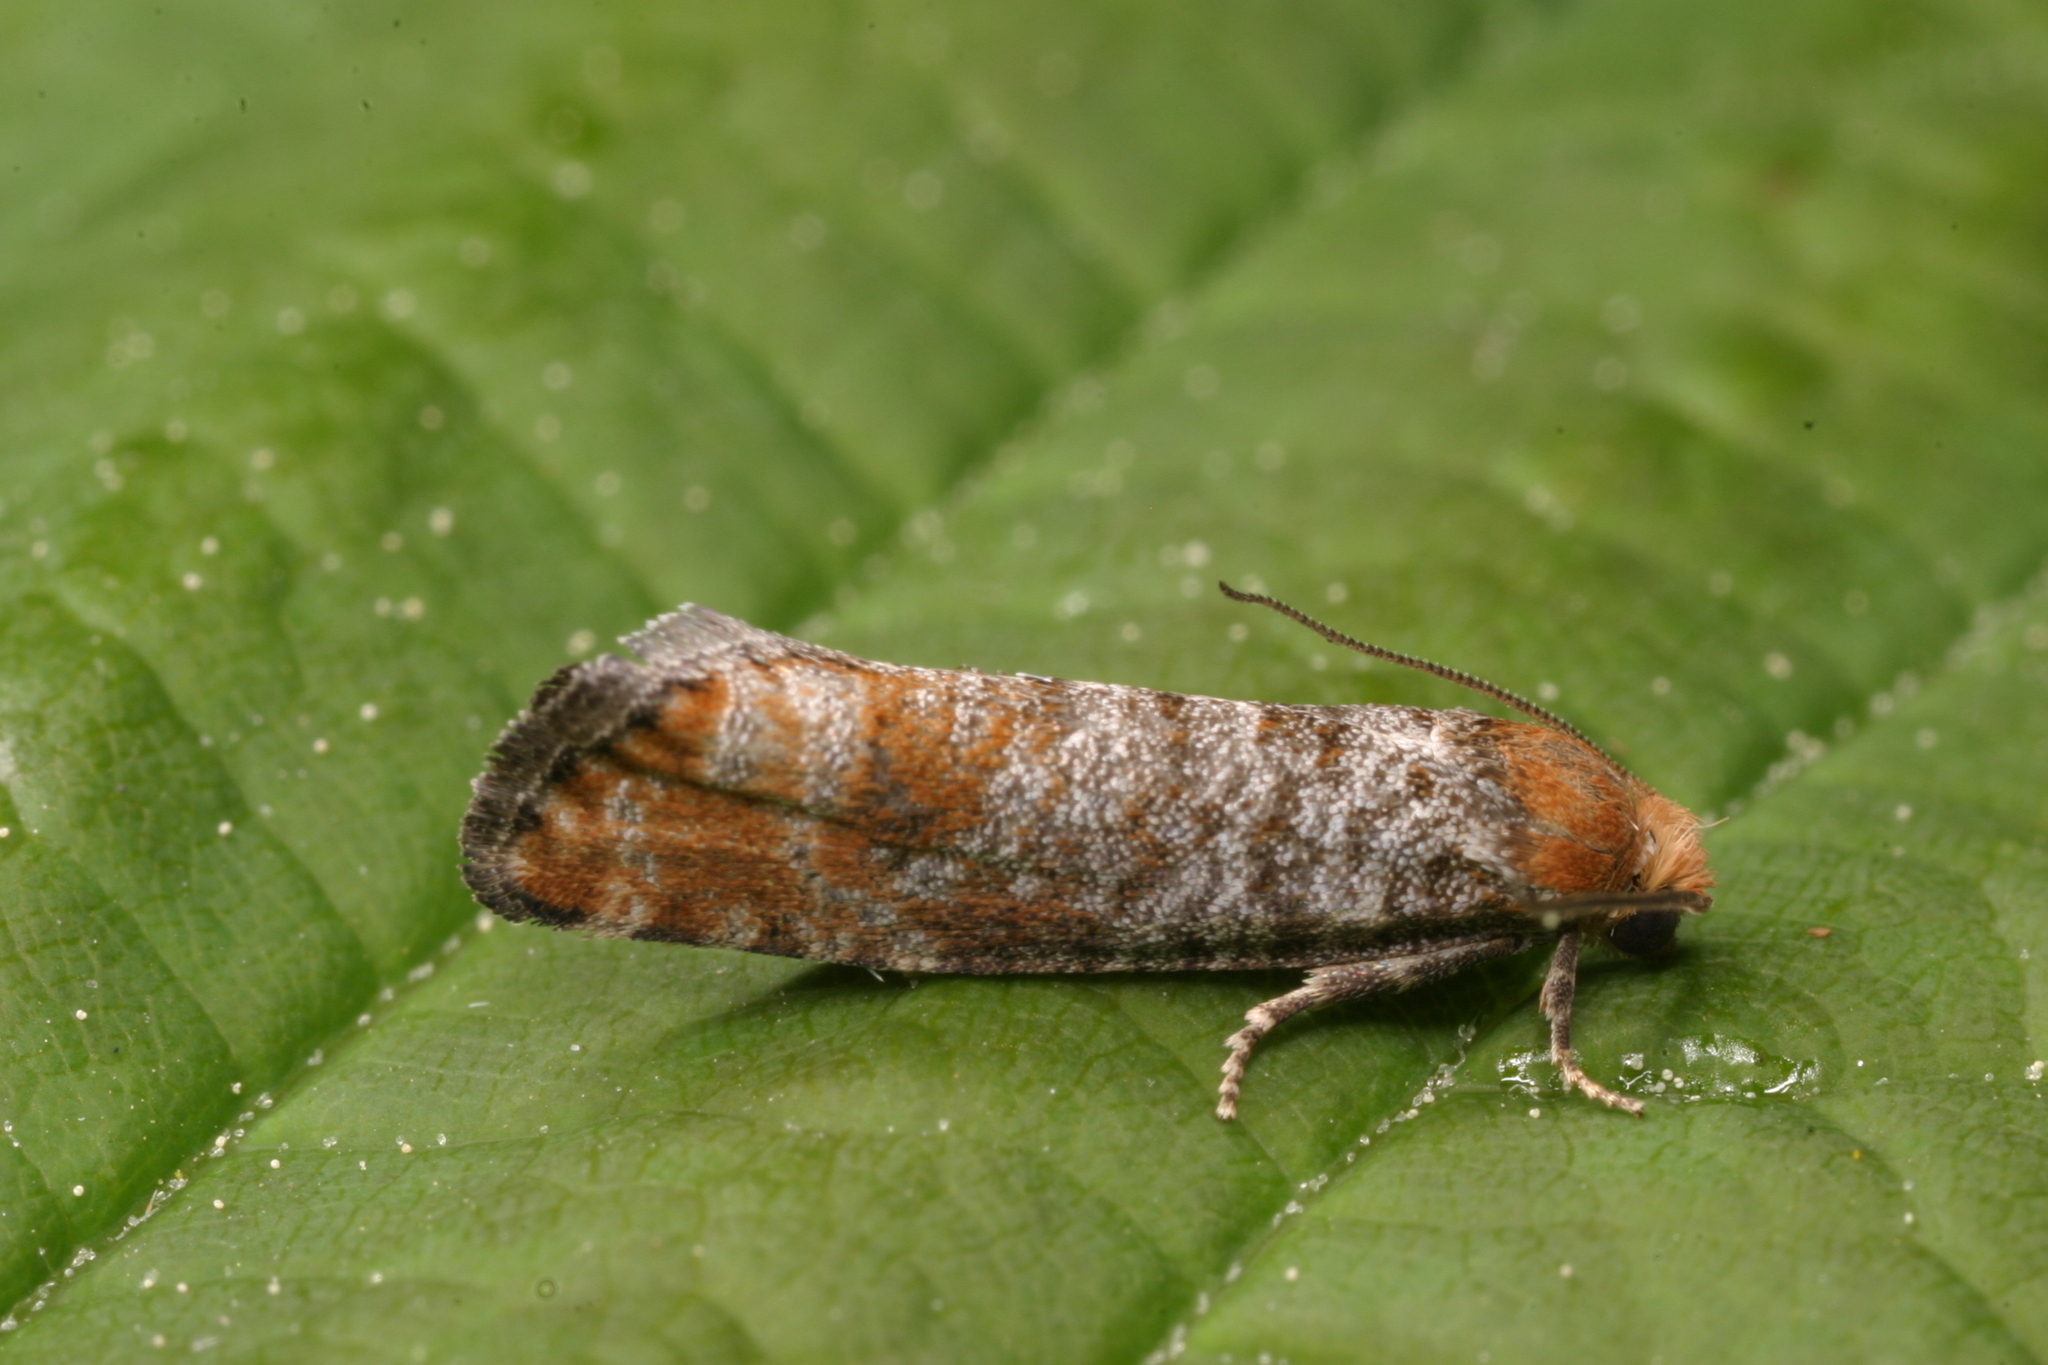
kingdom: Animalia
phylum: Arthropoda
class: Insecta
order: Lepidoptera
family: Tortricidae
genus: Blastesthia
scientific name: Blastesthia turionella
